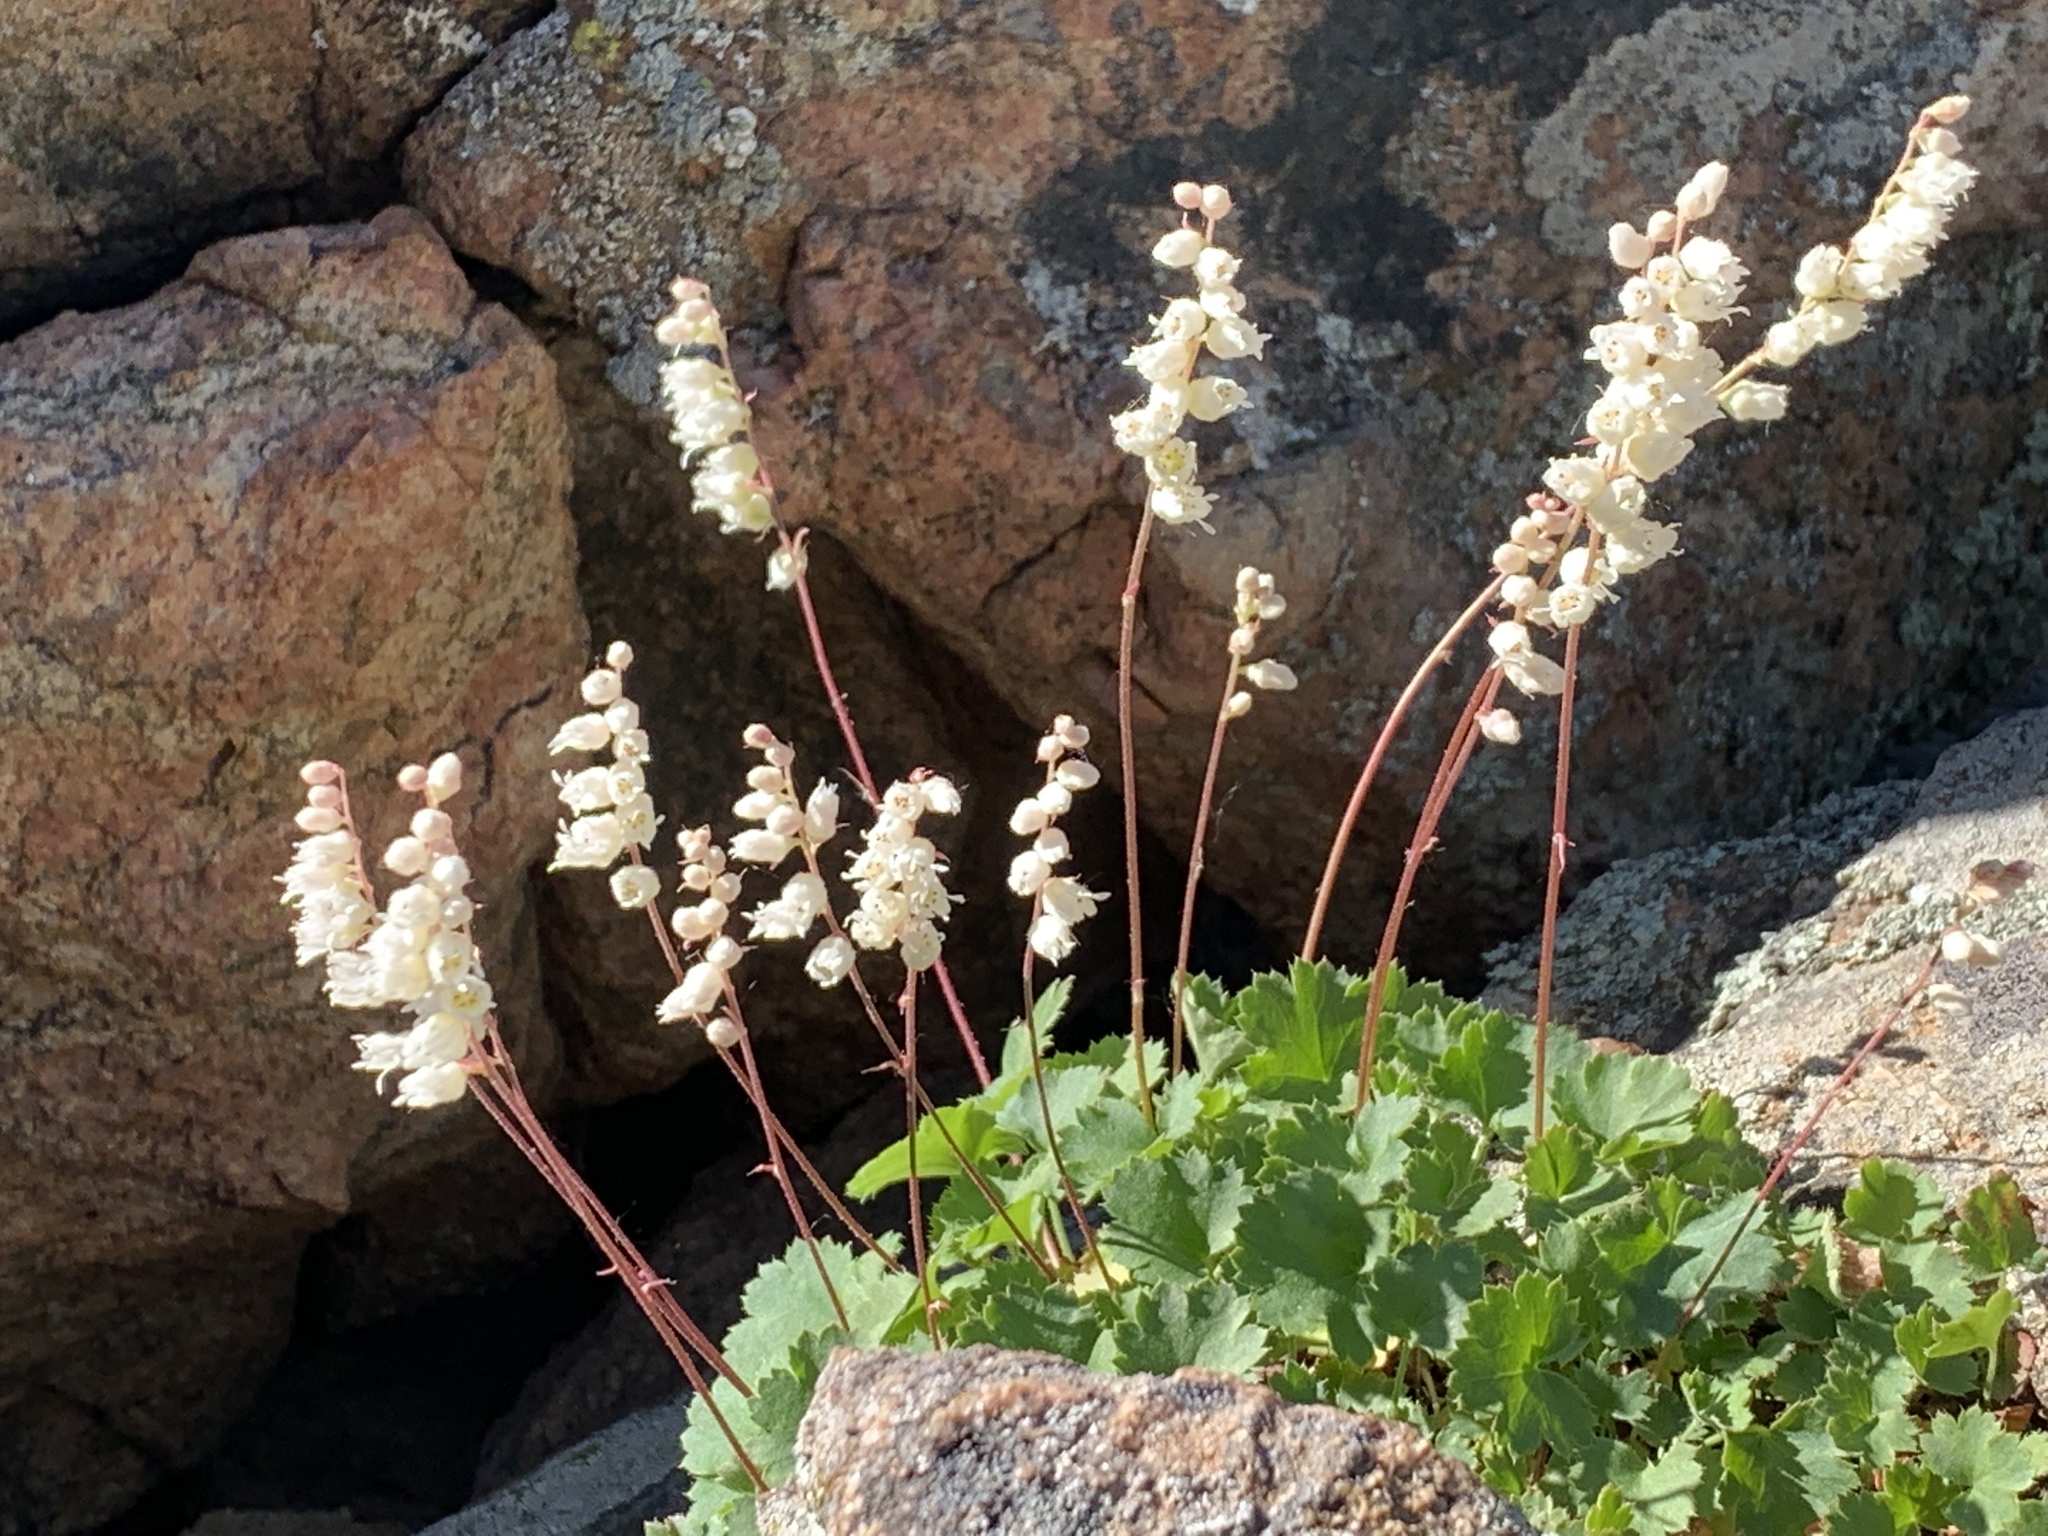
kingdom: Plantae
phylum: Tracheophyta
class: Magnoliopsida
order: Saxifragales
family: Saxifragaceae
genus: Heuchera
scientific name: Heuchera hallii
